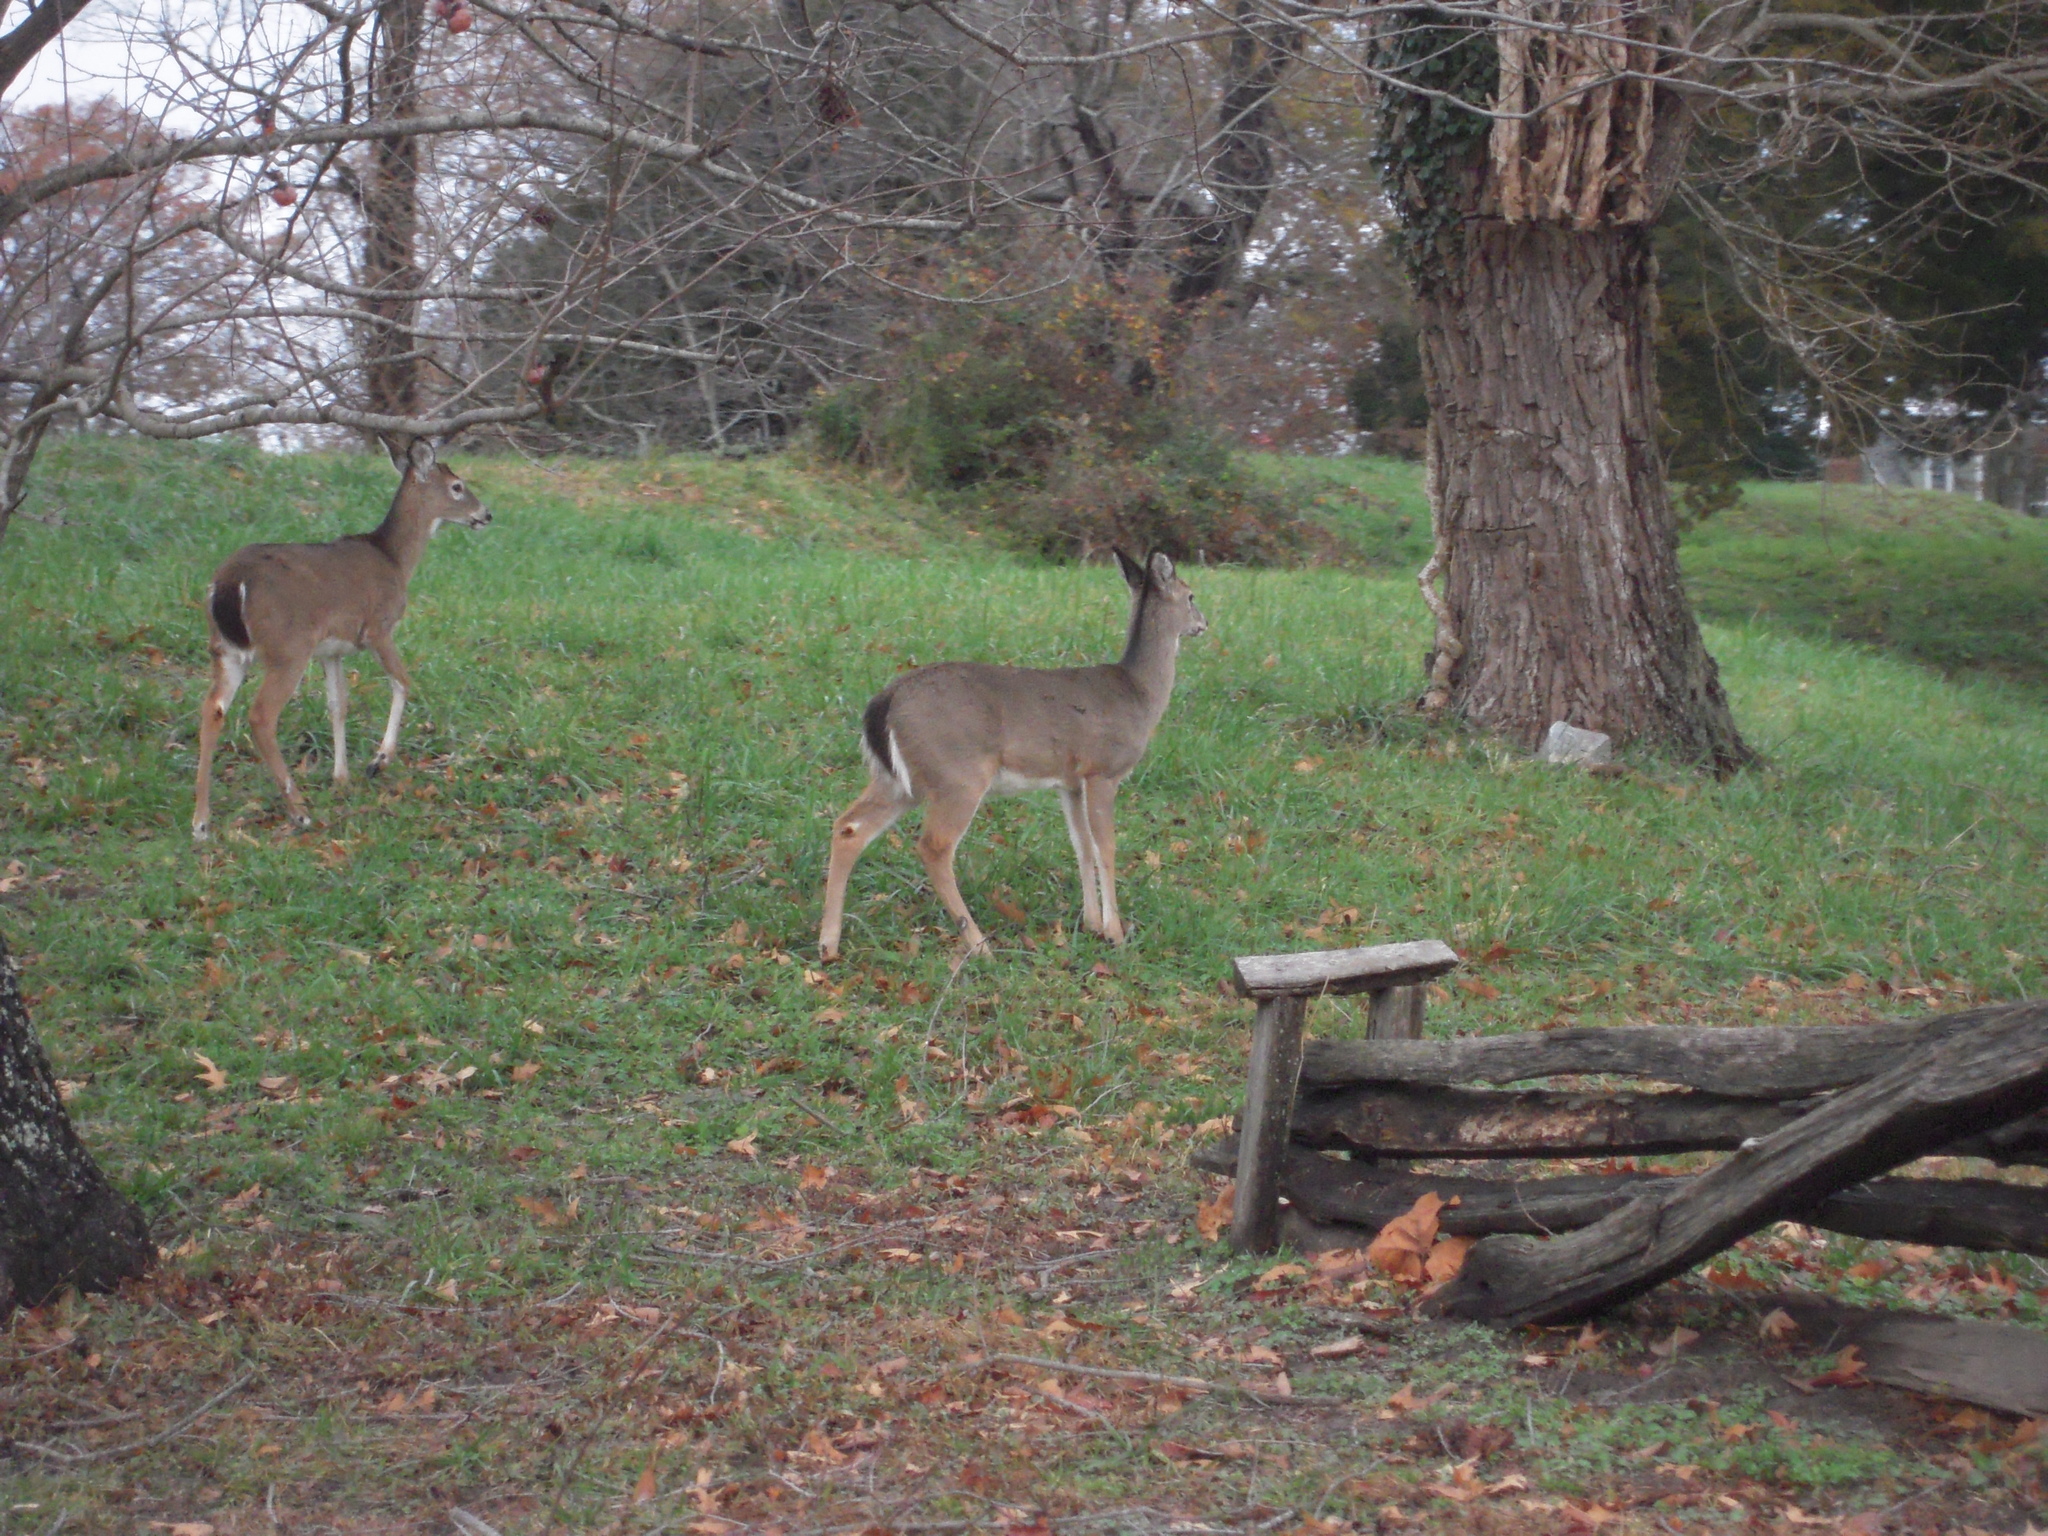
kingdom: Animalia
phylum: Chordata
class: Mammalia
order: Artiodactyla
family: Cervidae
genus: Odocoileus
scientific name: Odocoileus virginianus
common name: White-tailed deer
